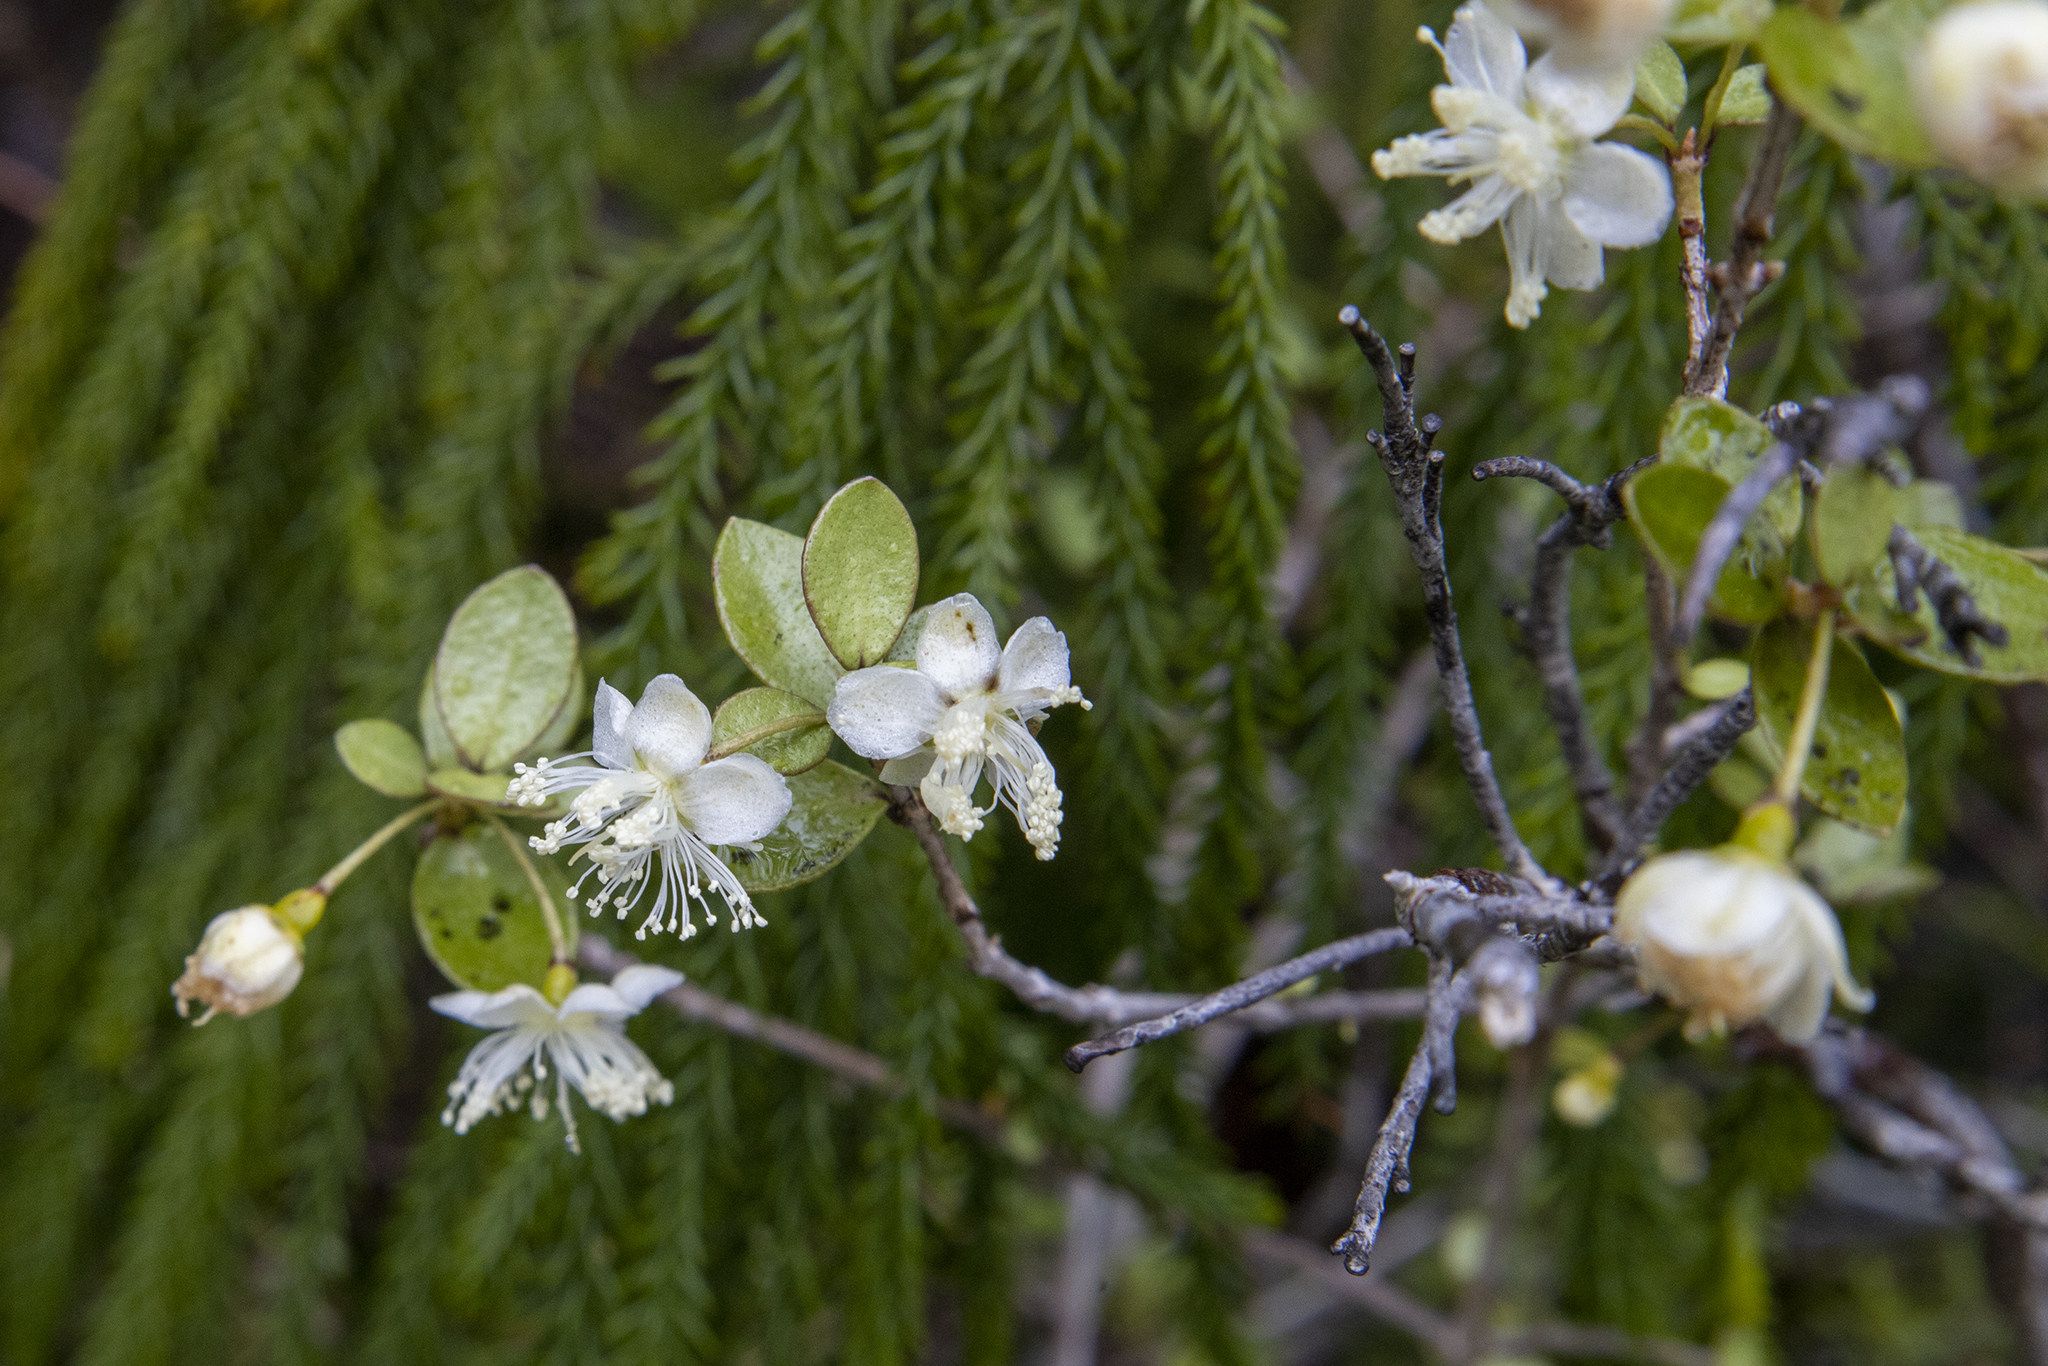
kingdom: Plantae
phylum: Tracheophyta
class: Magnoliopsida
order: Myrtales
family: Myrtaceae
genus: Neomyrtus
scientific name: Neomyrtus pedunculata
